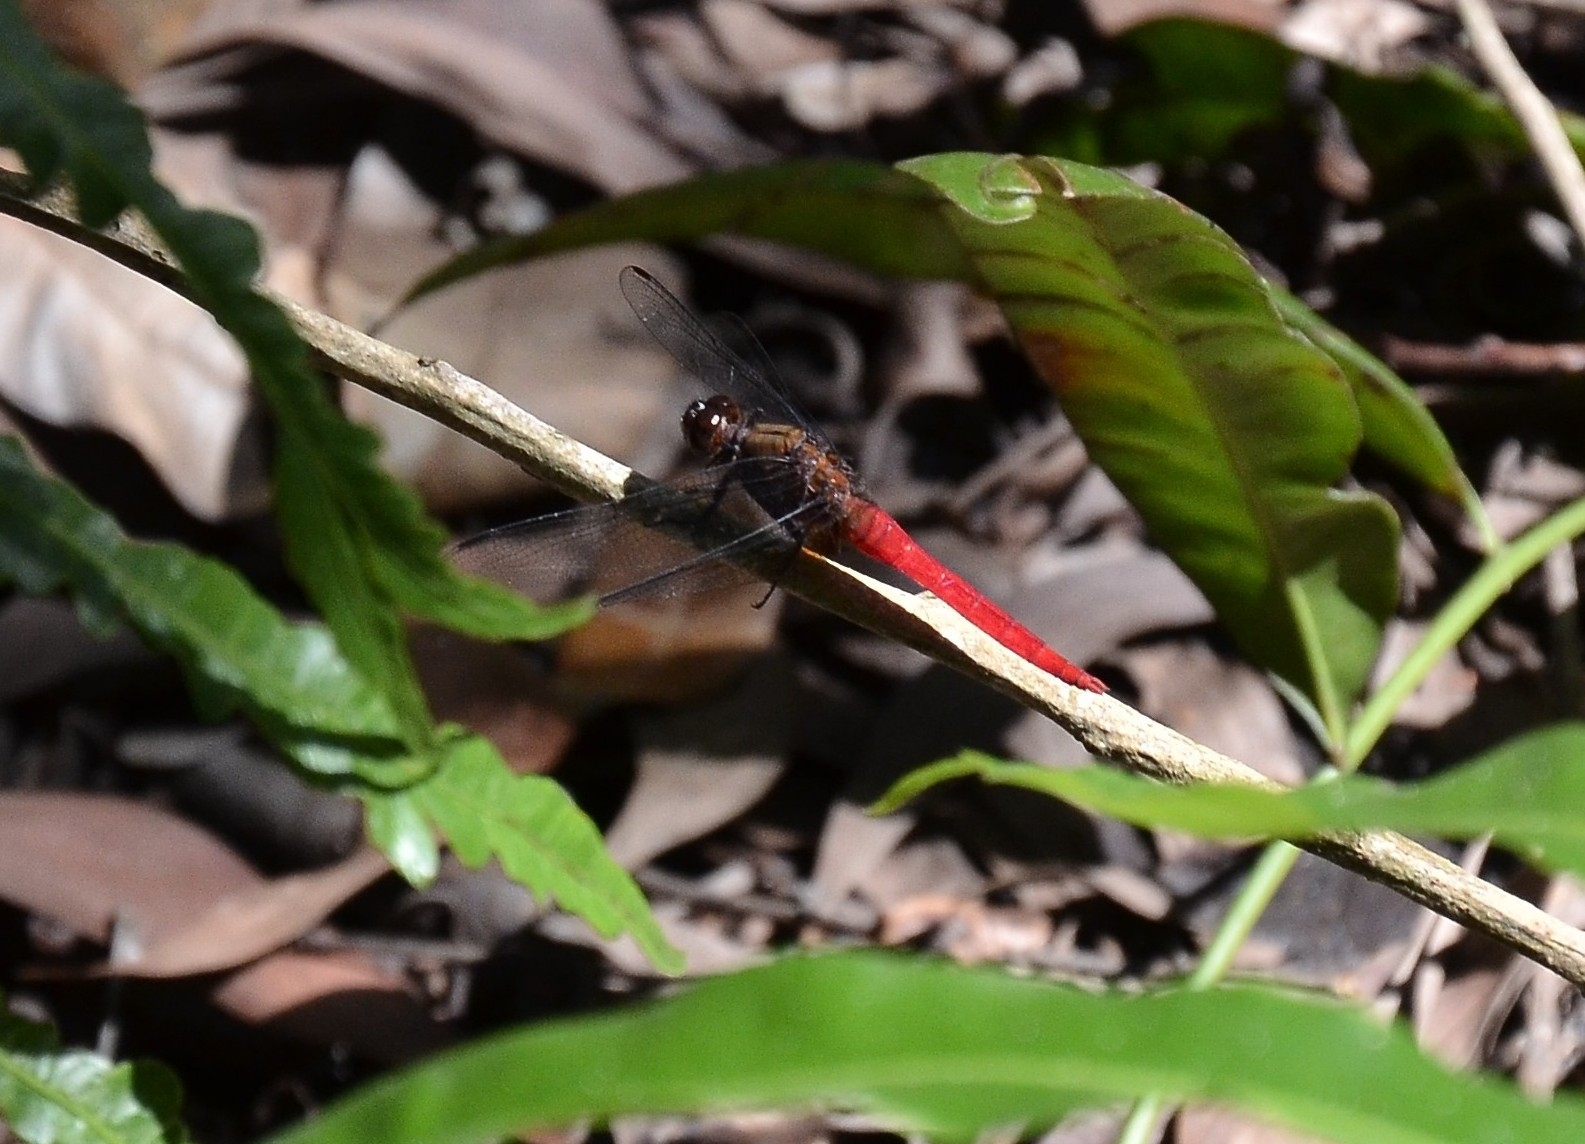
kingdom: Animalia
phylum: Arthropoda
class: Insecta
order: Odonata
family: Libellulidae
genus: Orthetrum
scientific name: Orthetrum chrysis
